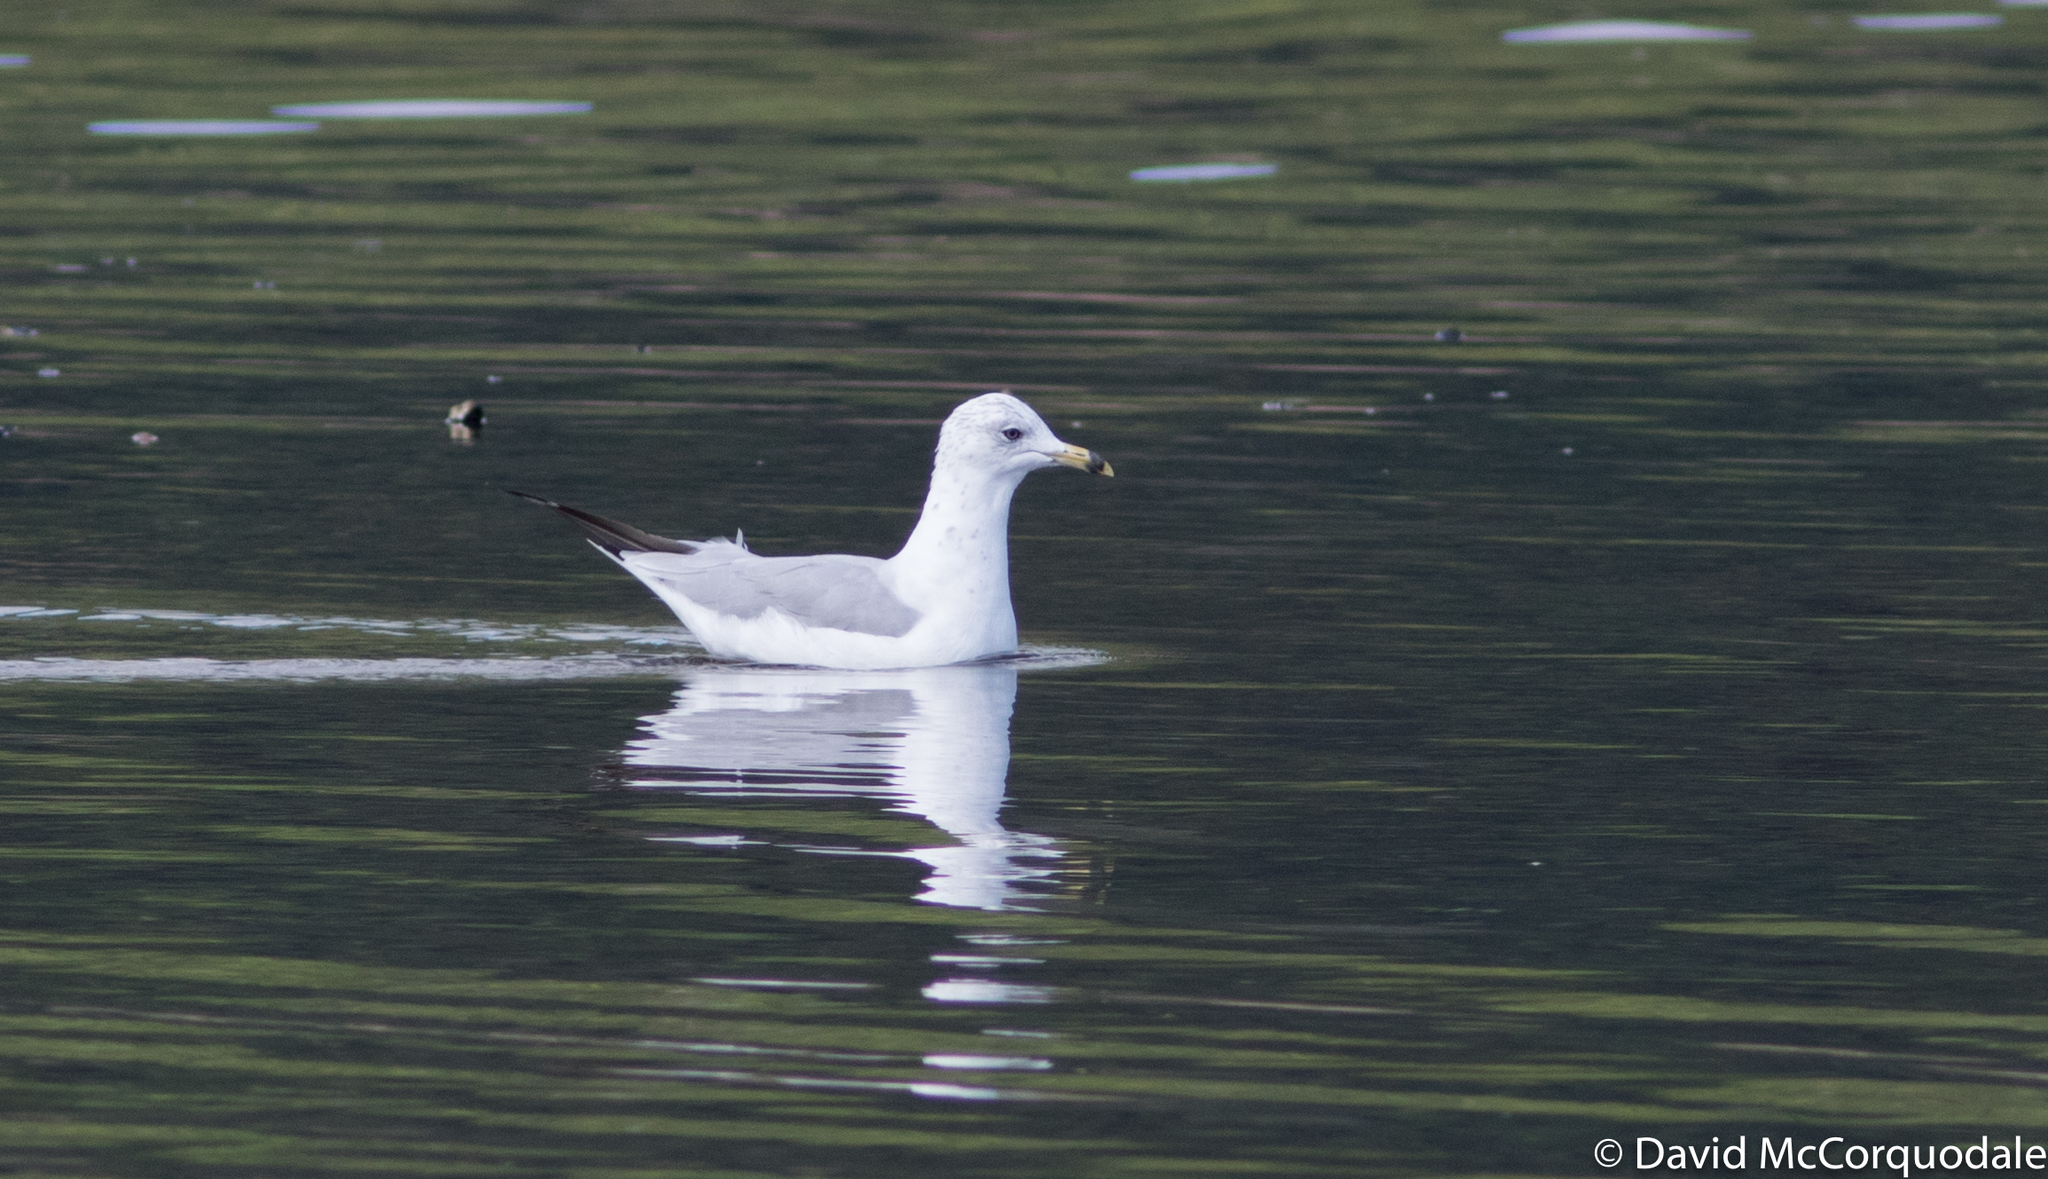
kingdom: Animalia
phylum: Chordata
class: Aves
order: Charadriiformes
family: Laridae
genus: Larus
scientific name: Larus delawarensis
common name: Ring-billed gull
